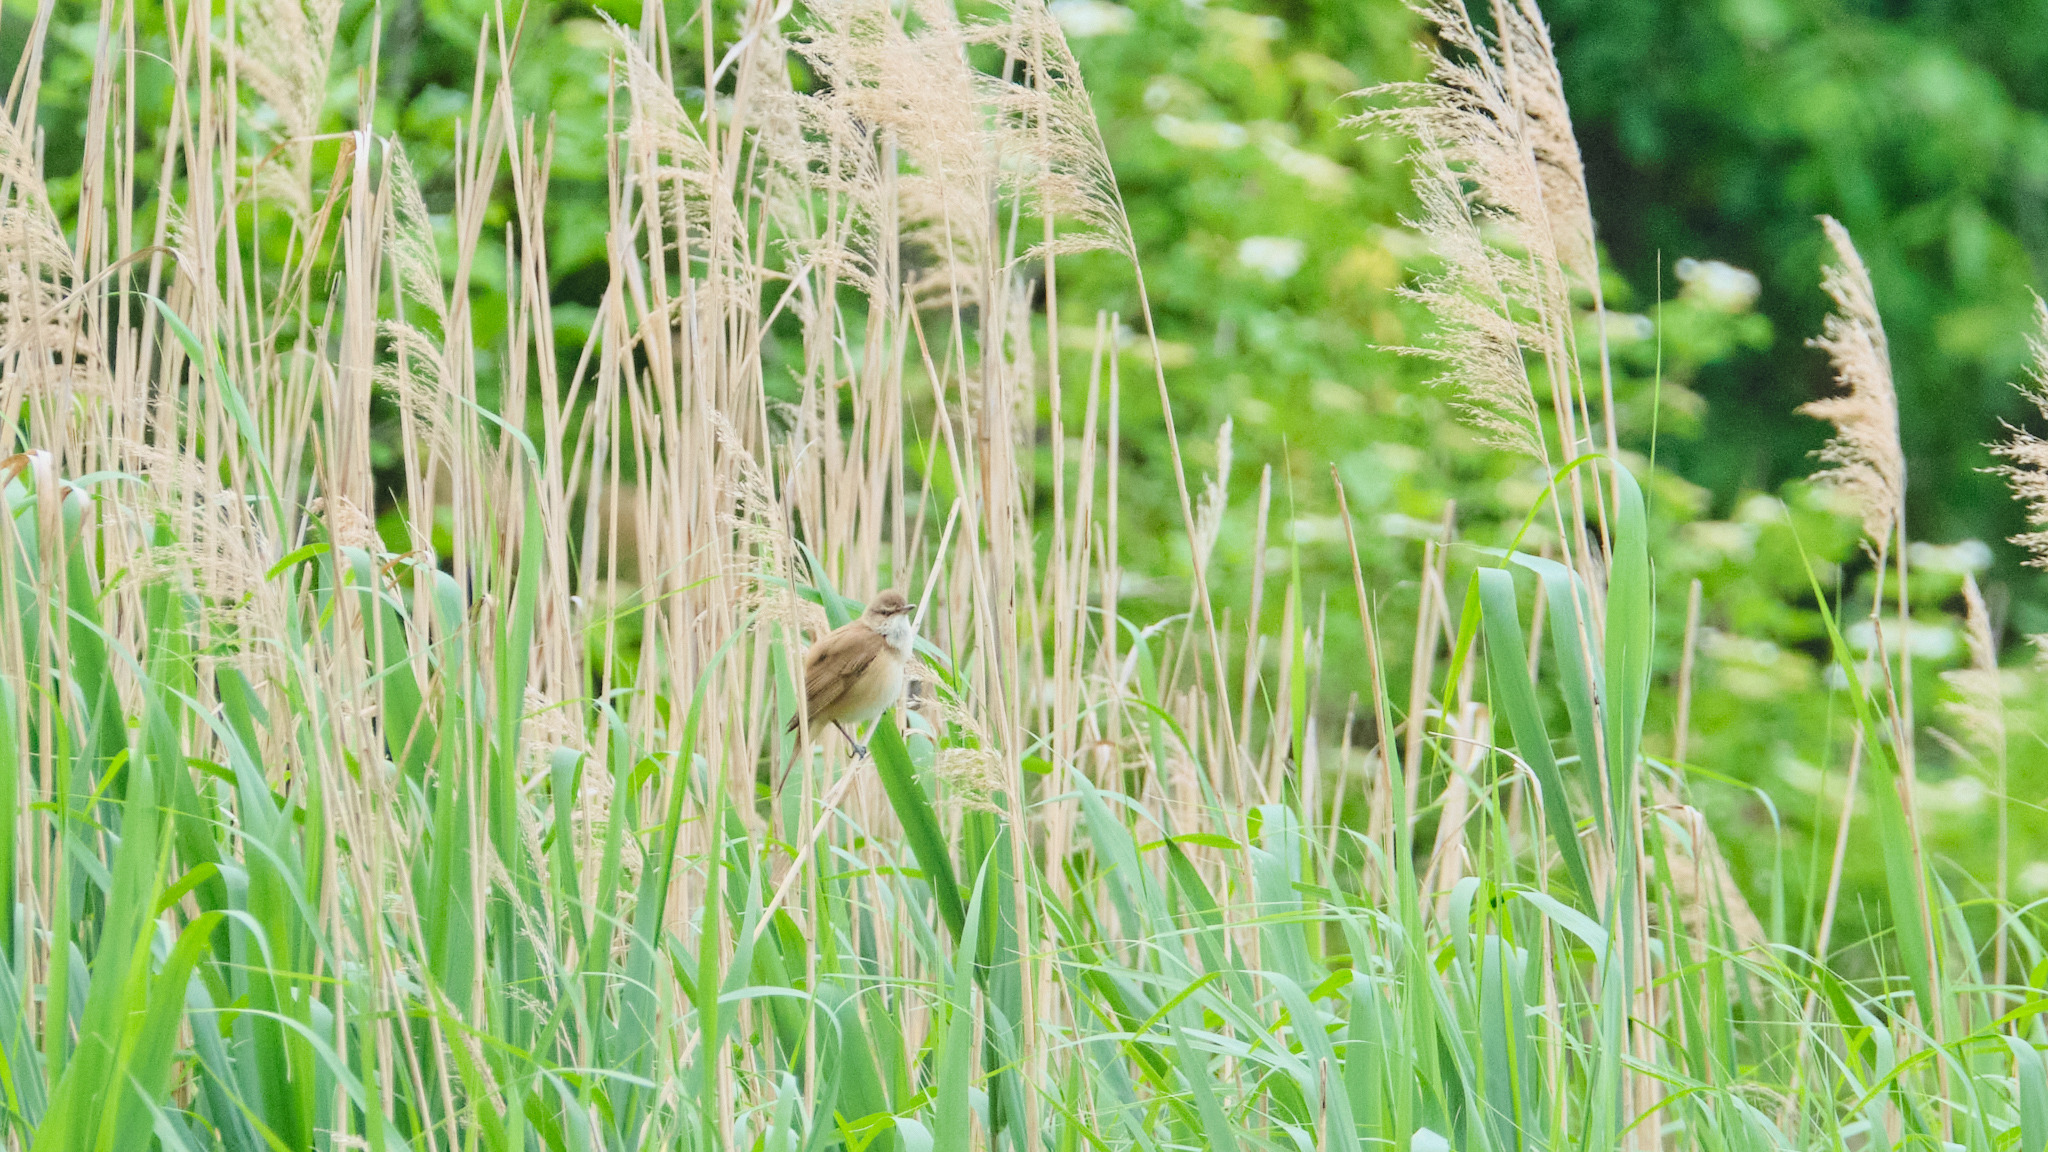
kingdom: Animalia
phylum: Chordata
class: Aves
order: Passeriformes
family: Acrocephalidae
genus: Acrocephalus
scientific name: Acrocephalus arundinaceus
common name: Great reed warbler
